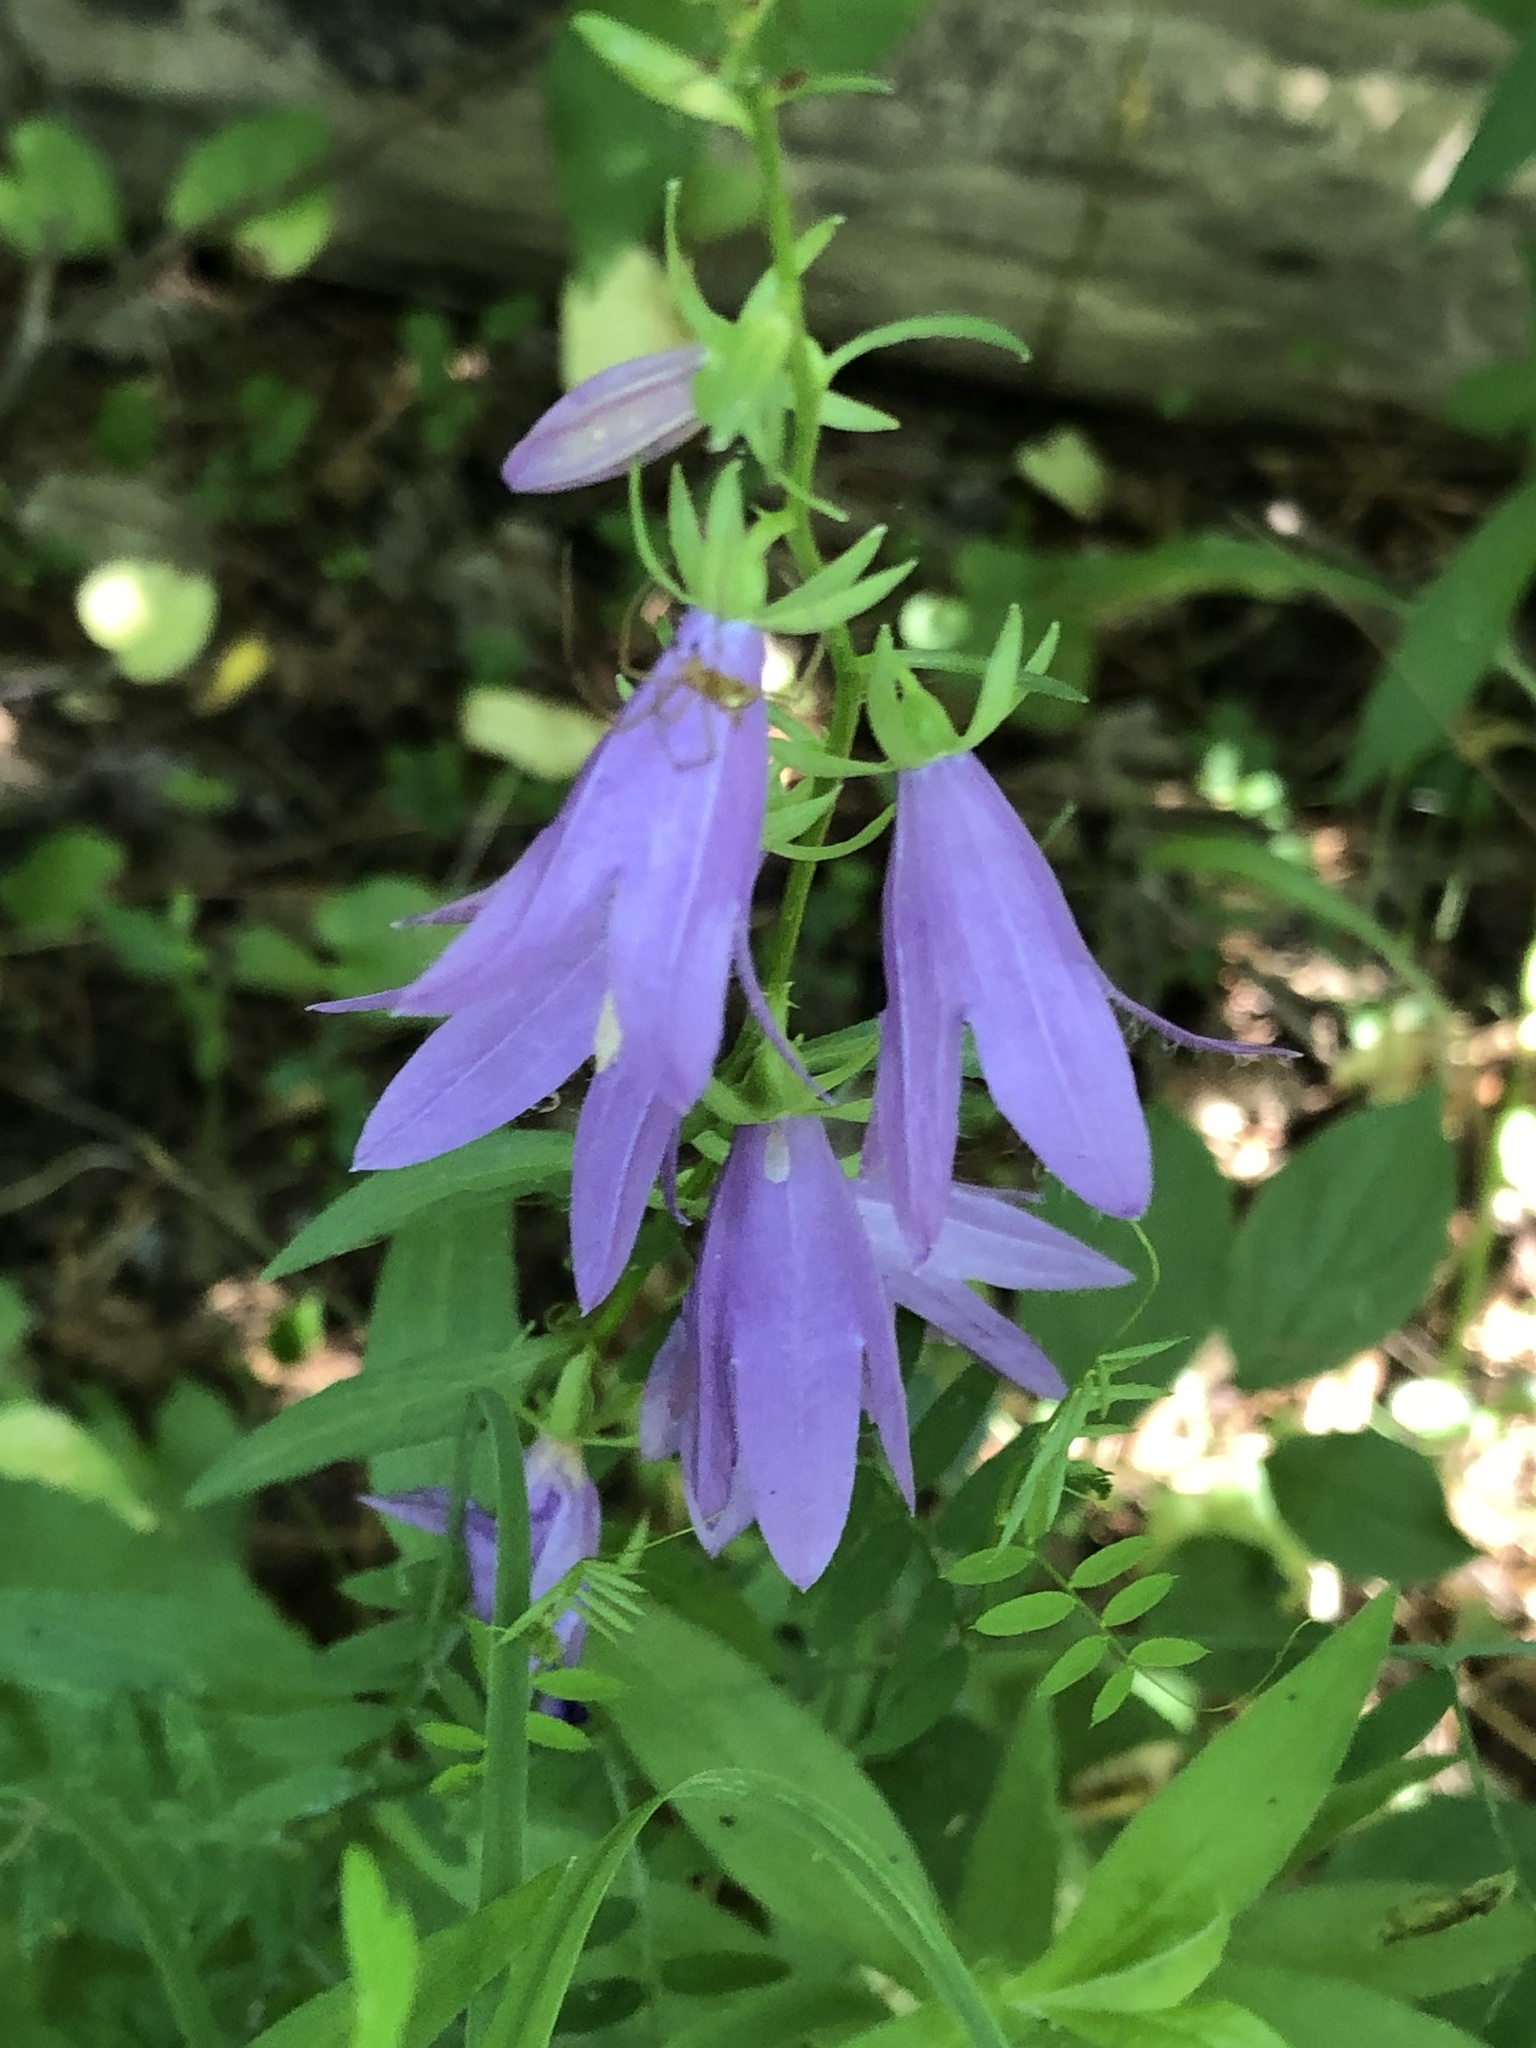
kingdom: Plantae
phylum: Tracheophyta
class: Magnoliopsida
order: Asterales
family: Campanulaceae
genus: Campanula
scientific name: Campanula rapunculoides
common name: Creeping bellflower
